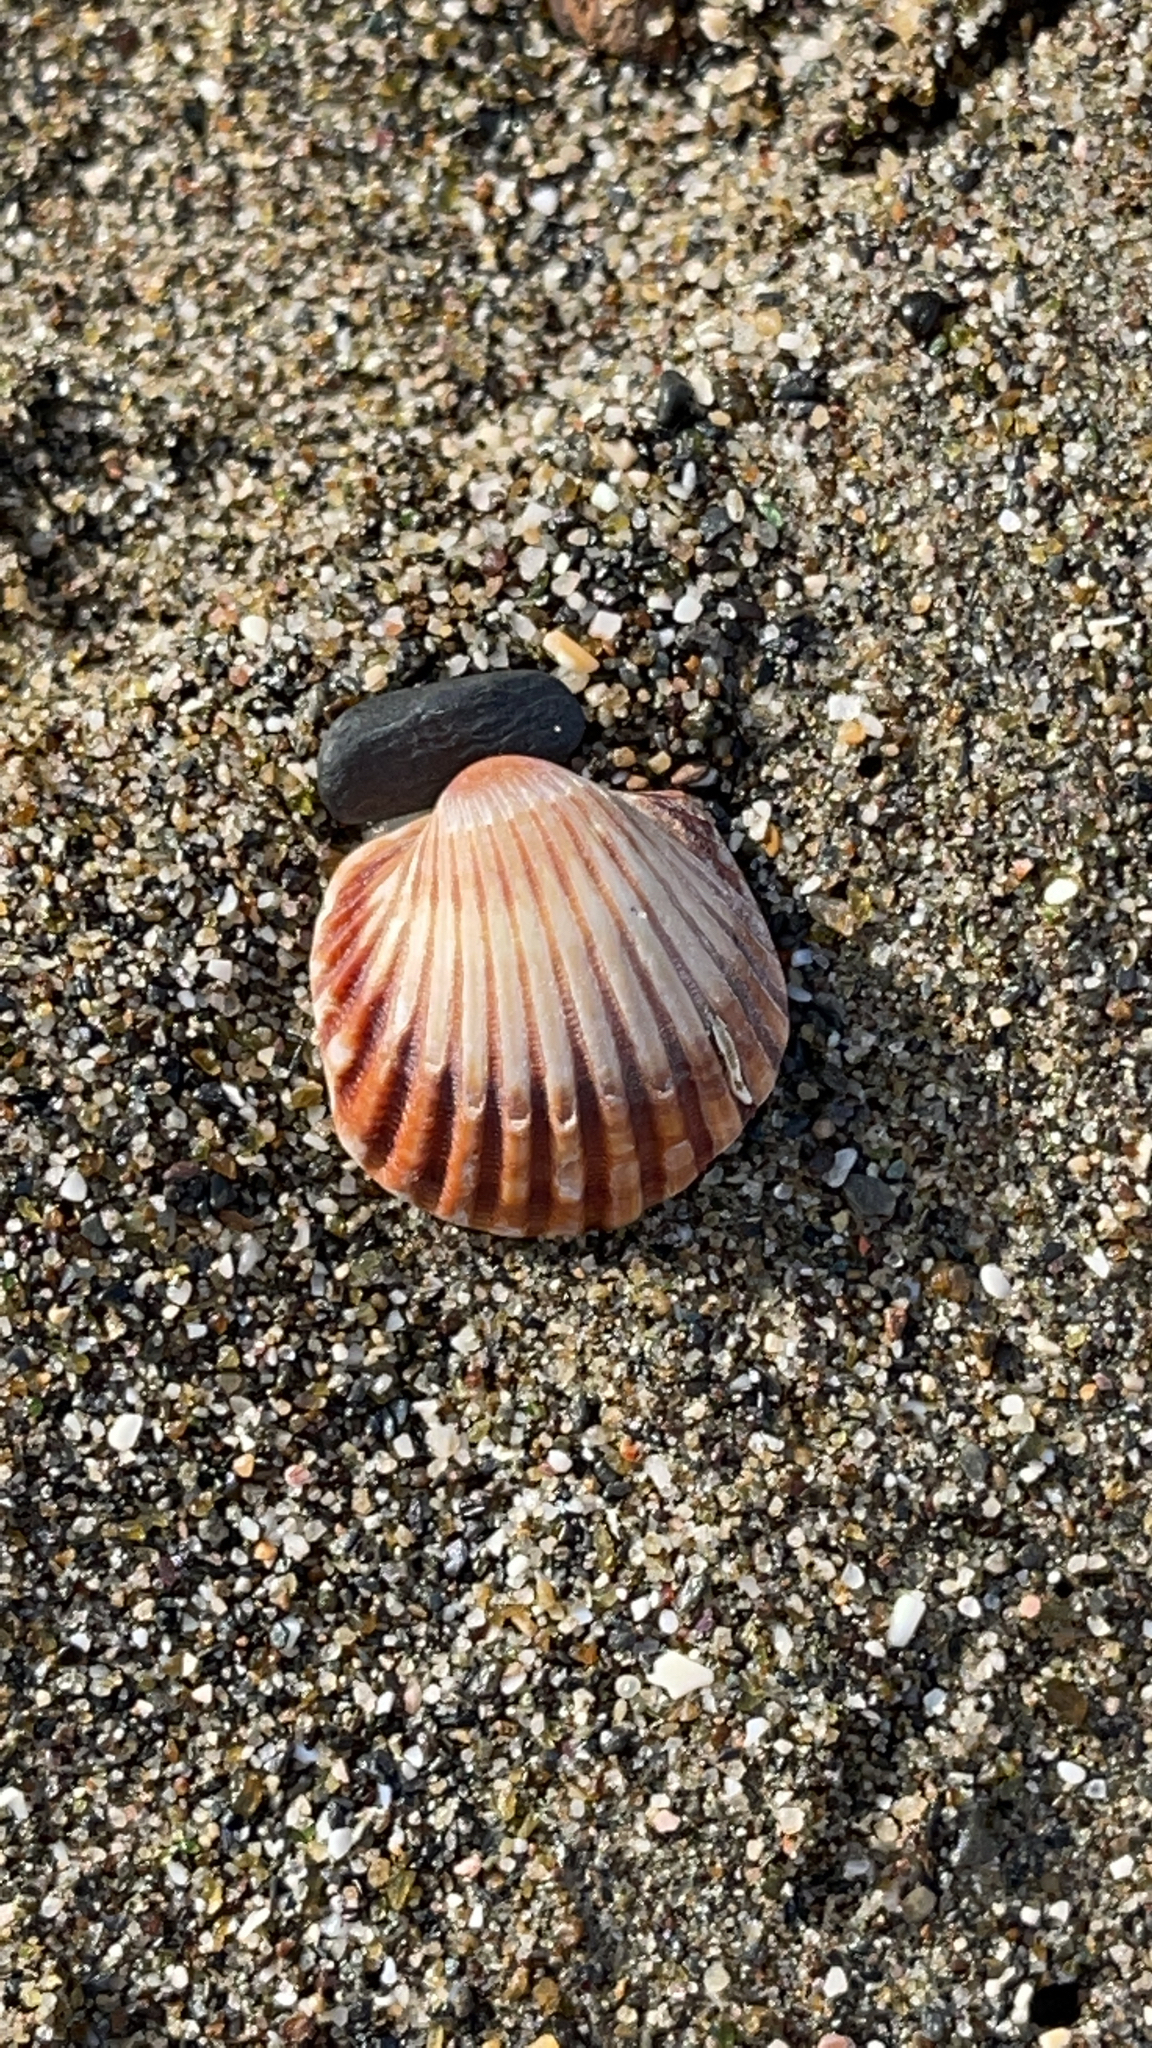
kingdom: Animalia
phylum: Mollusca
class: Bivalvia
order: Cardiida
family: Cardiidae
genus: Acanthocardia
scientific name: Acanthocardia tuberculata
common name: Rough cockle
